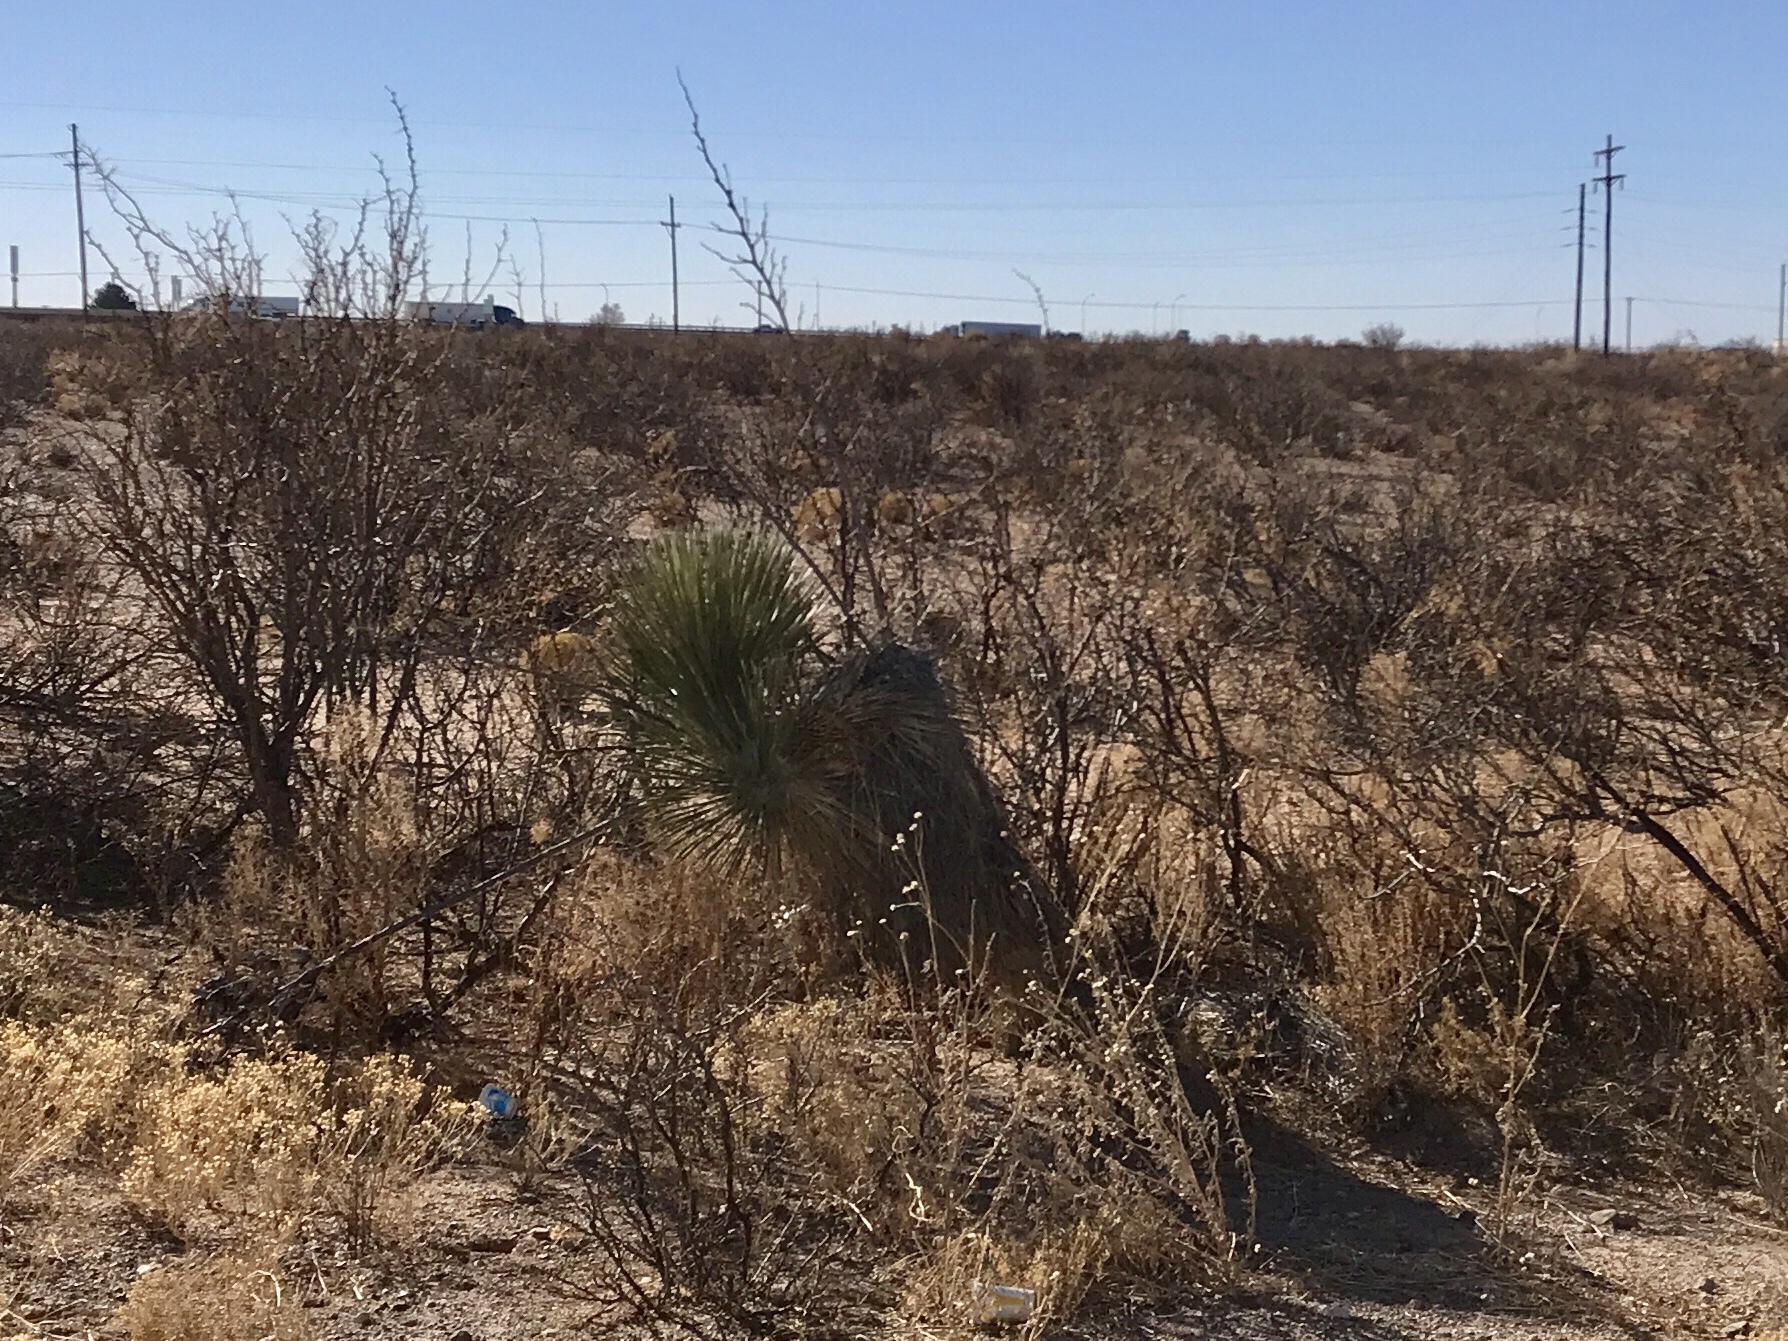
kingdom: Plantae
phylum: Tracheophyta
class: Liliopsida
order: Asparagales
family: Asparagaceae
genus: Yucca
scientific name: Yucca elata
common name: Palmella
